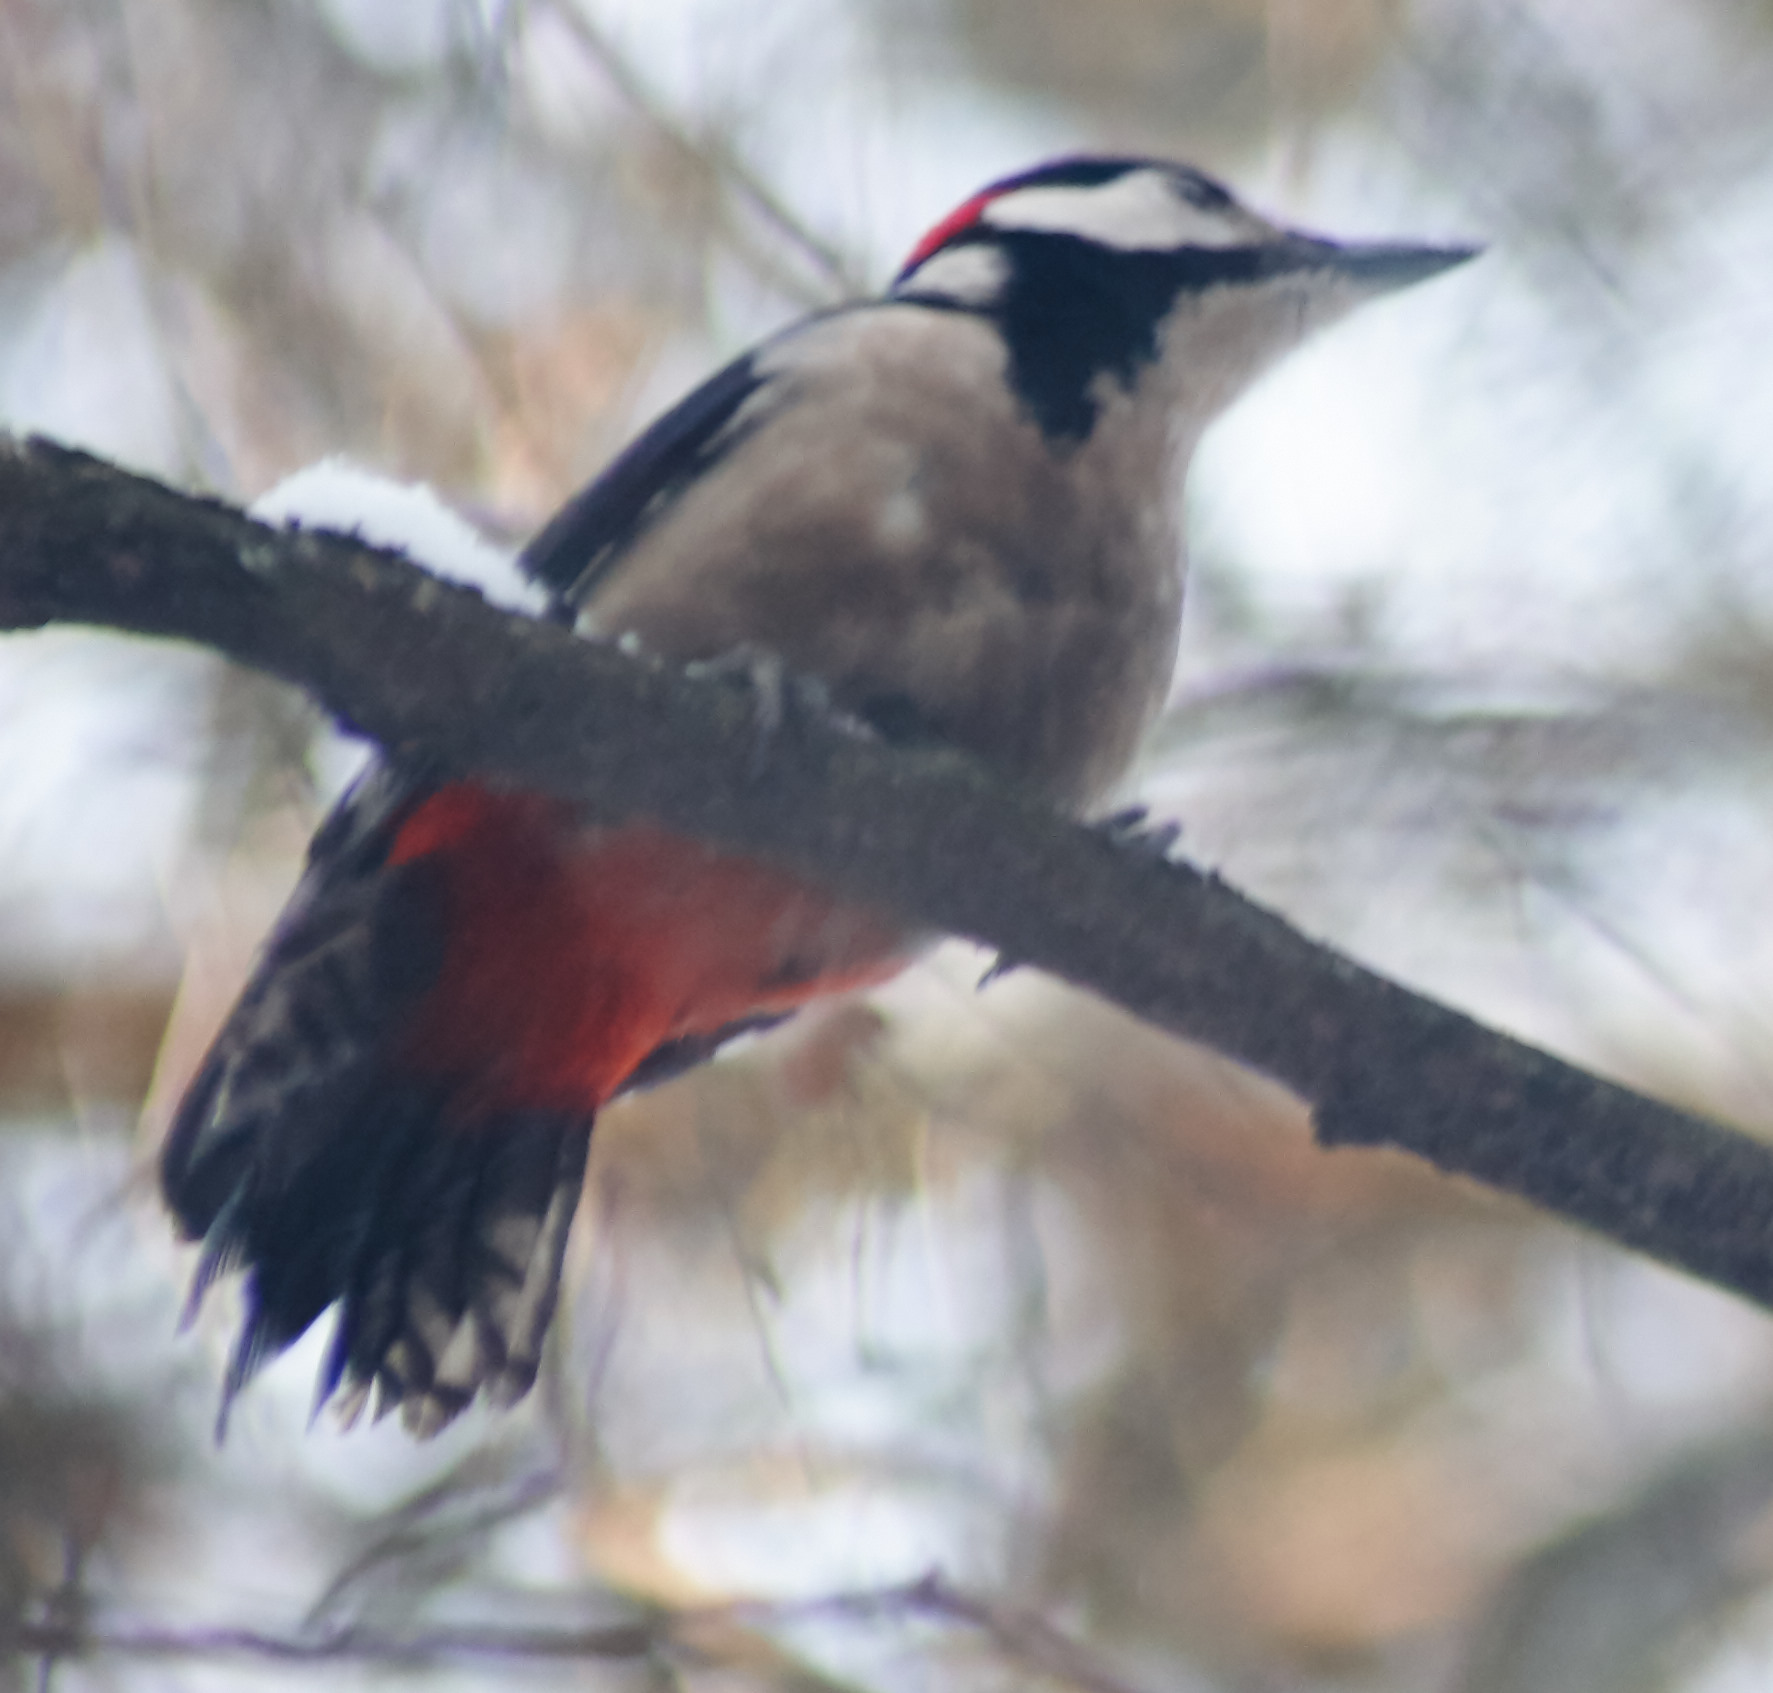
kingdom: Animalia
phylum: Chordata
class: Aves
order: Piciformes
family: Picidae
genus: Dendrocopos
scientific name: Dendrocopos major
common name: Great spotted woodpecker
